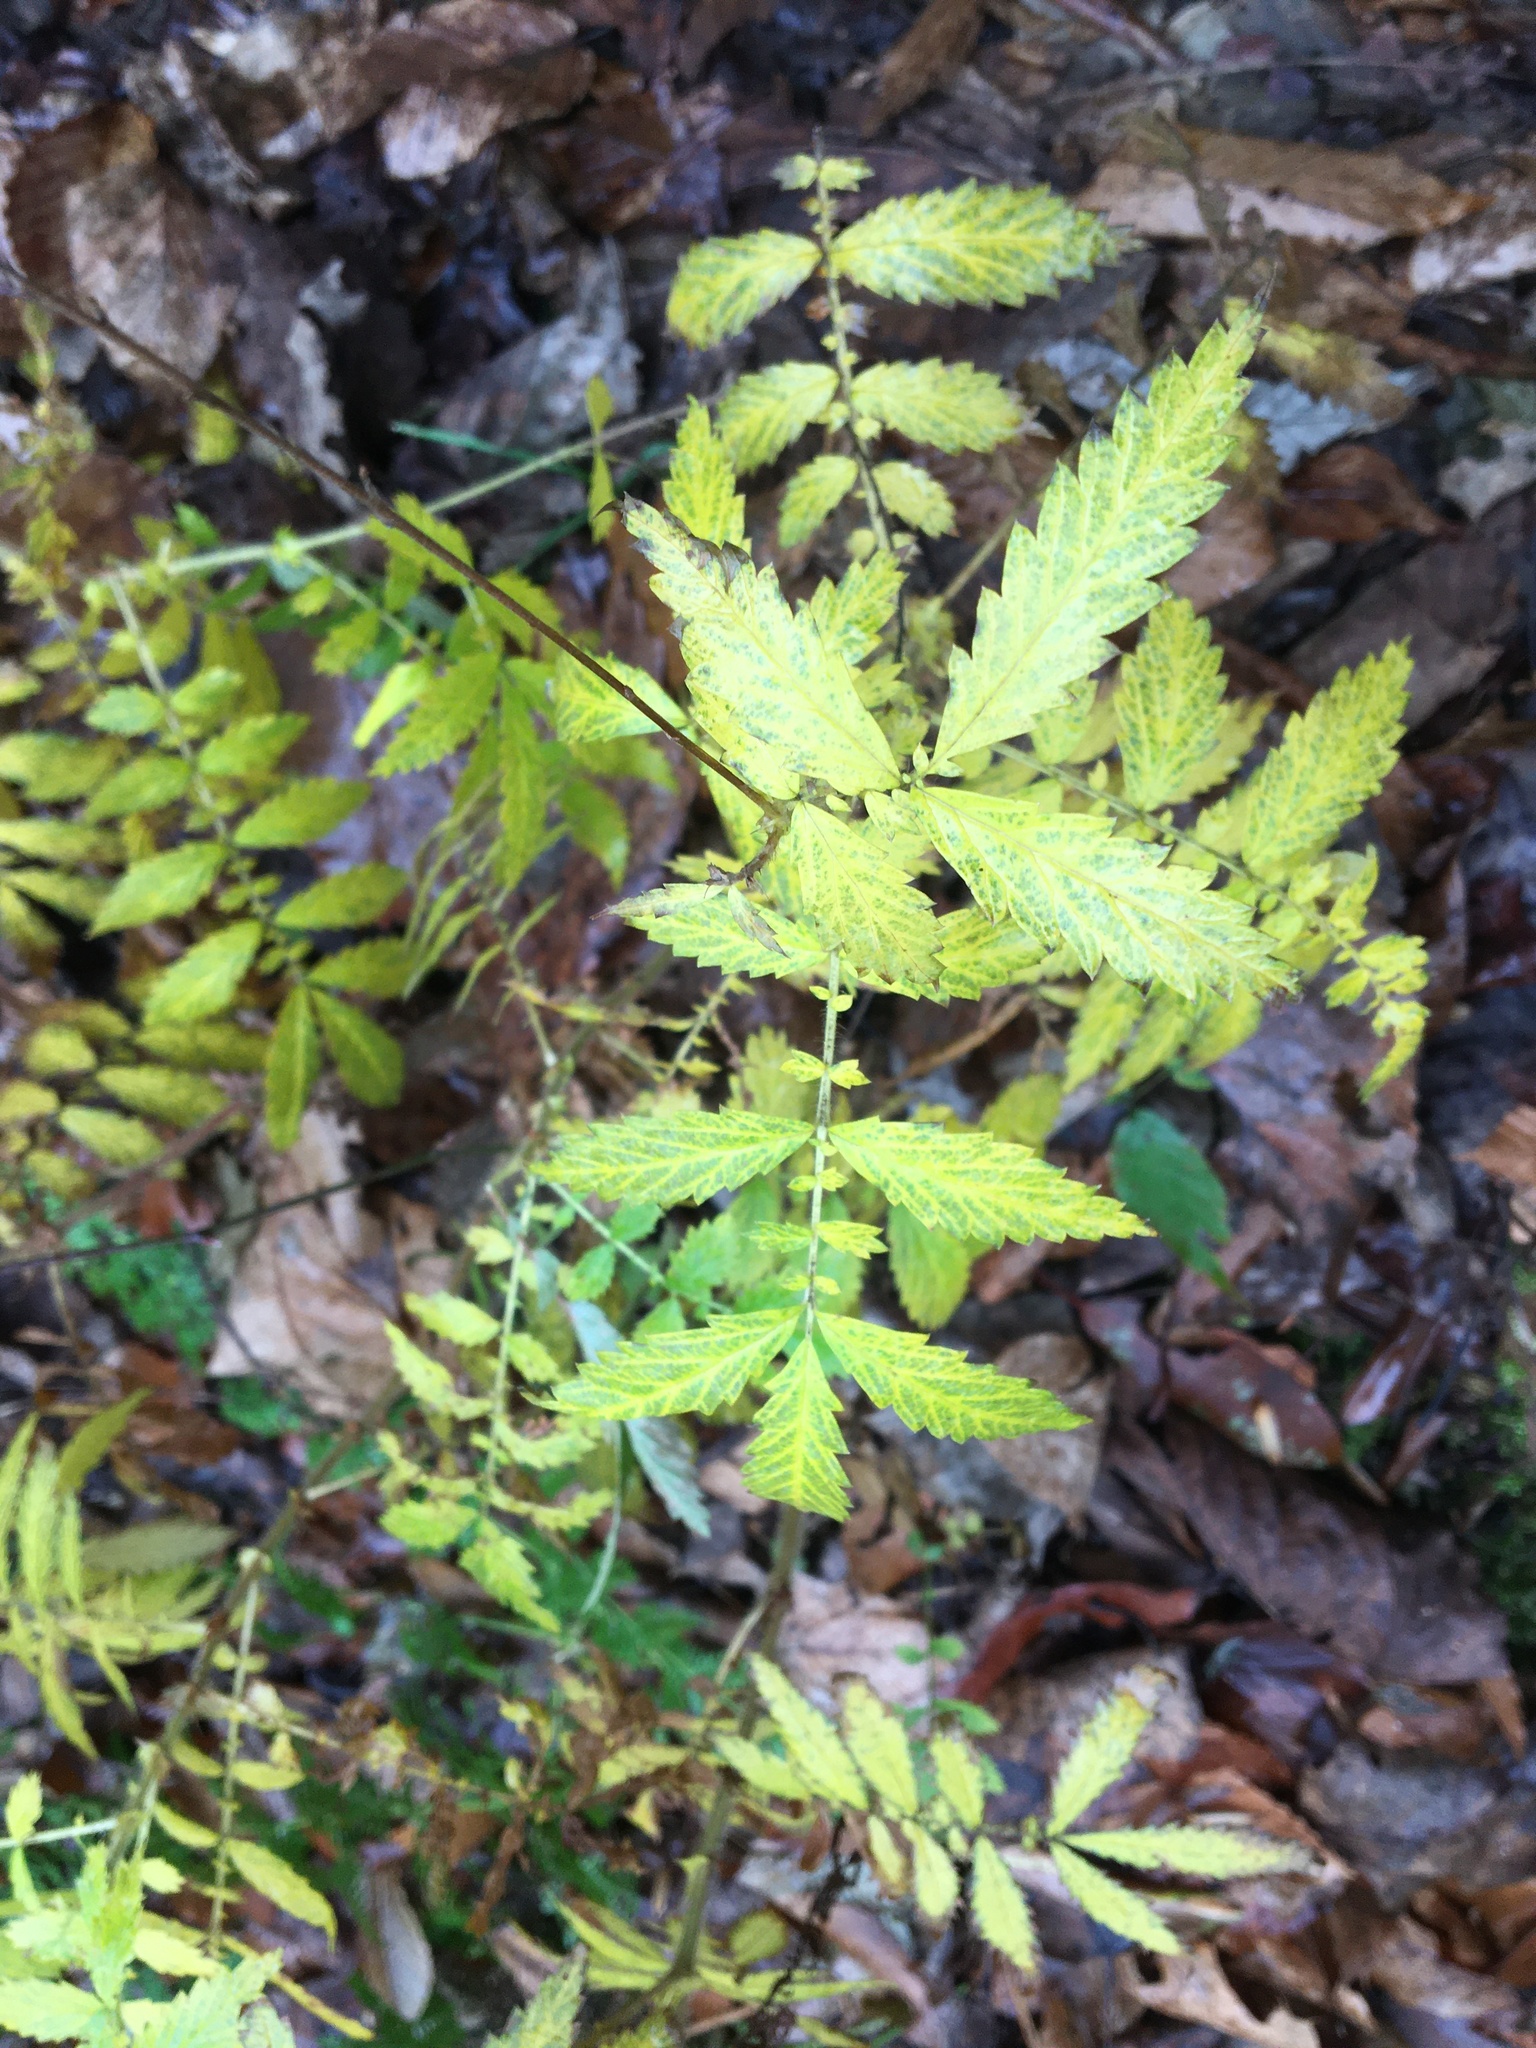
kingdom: Plantae
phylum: Tracheophyta
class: Magnoliopsida
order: Rosales
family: Rosaceae
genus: Agrimonia
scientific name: Agrimonia parviflora
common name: Harvest-lice
